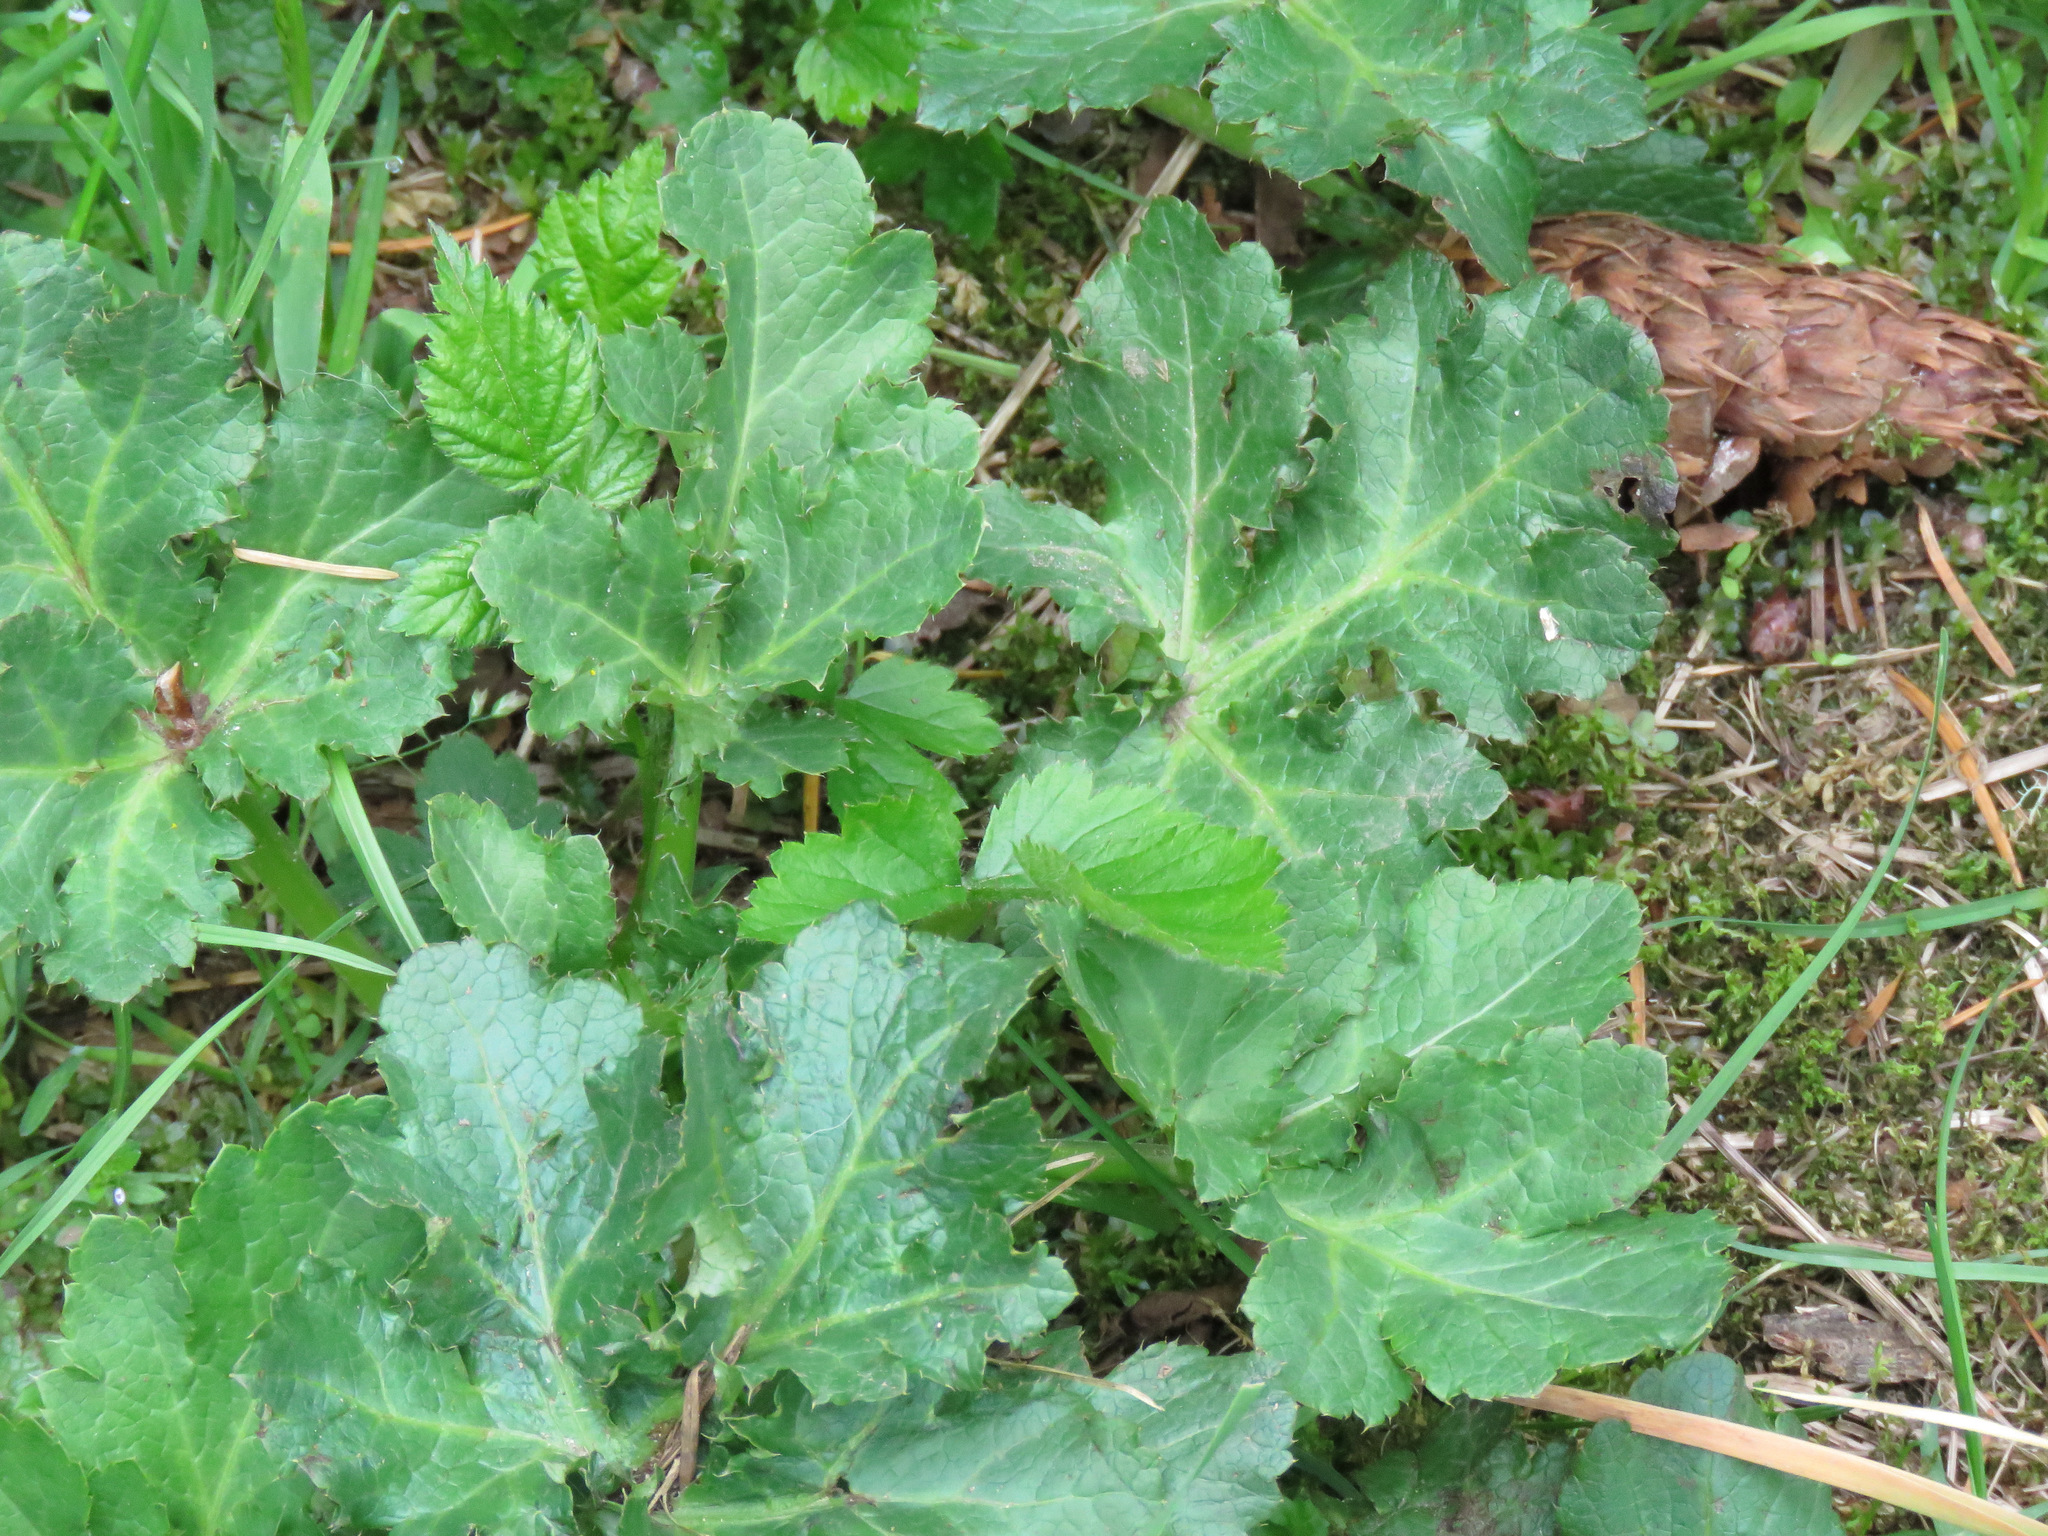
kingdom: Plantae
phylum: Tracheophyta
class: Magnoliopsida
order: Apiales
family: Apiaceae
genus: Sanicula
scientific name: Sanicula crassicaulis
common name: Western snakeroot
